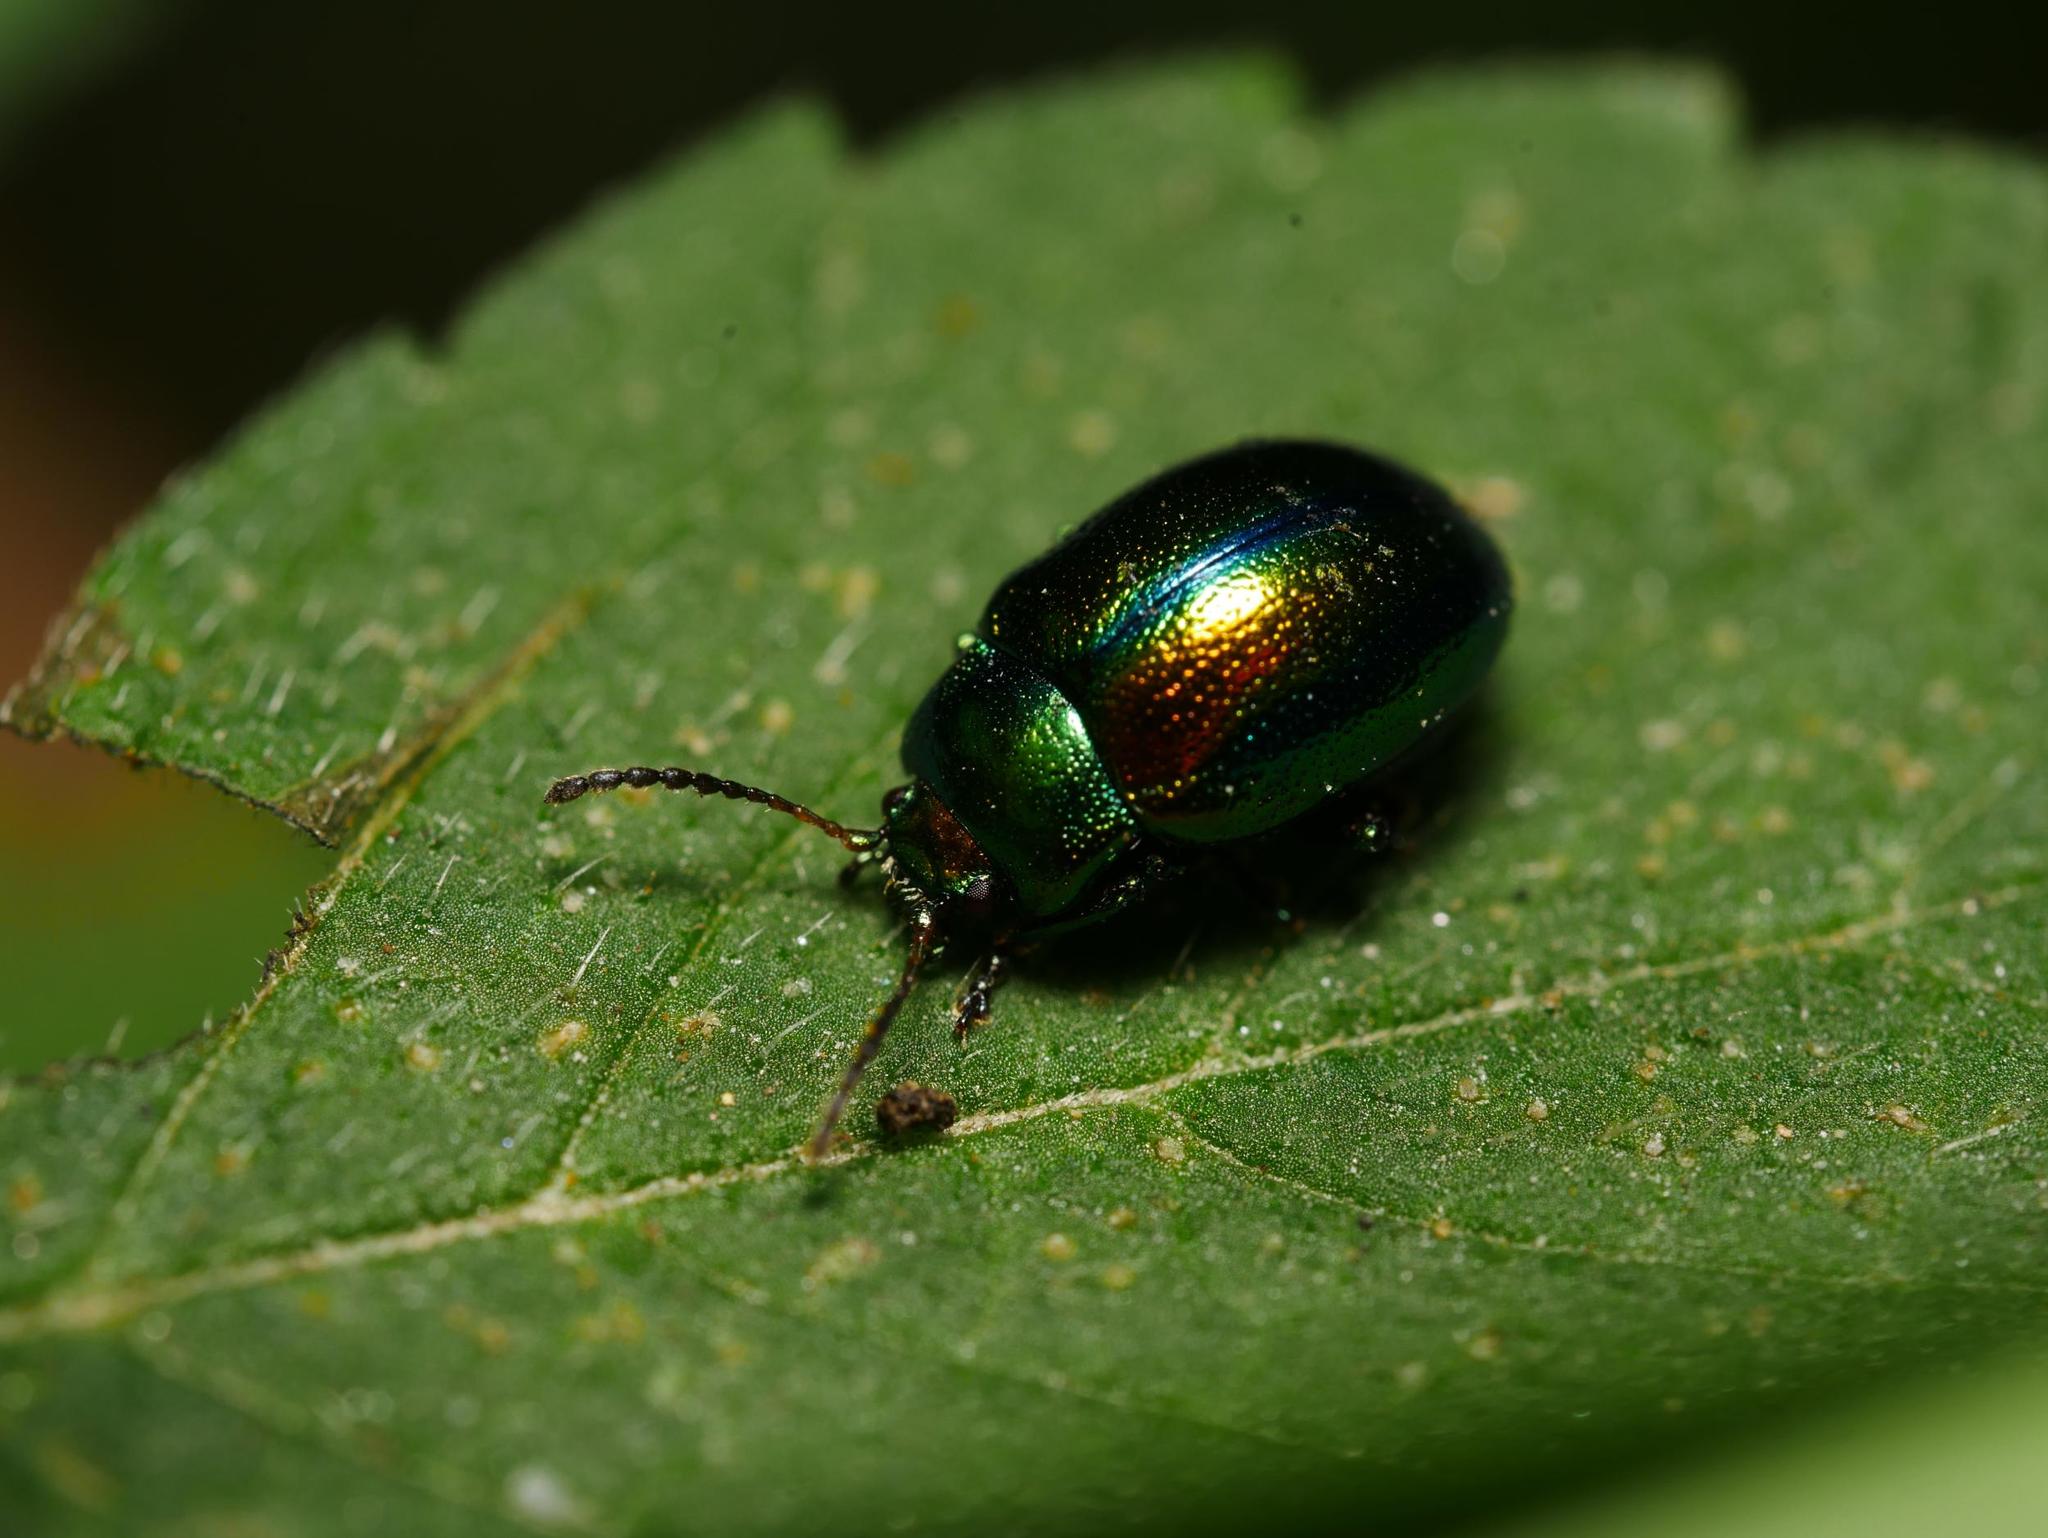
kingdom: Animalia
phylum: Arthropoda
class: Insecta
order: Coleoptera
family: Chrysomelidae
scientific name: Chrysomelidae
